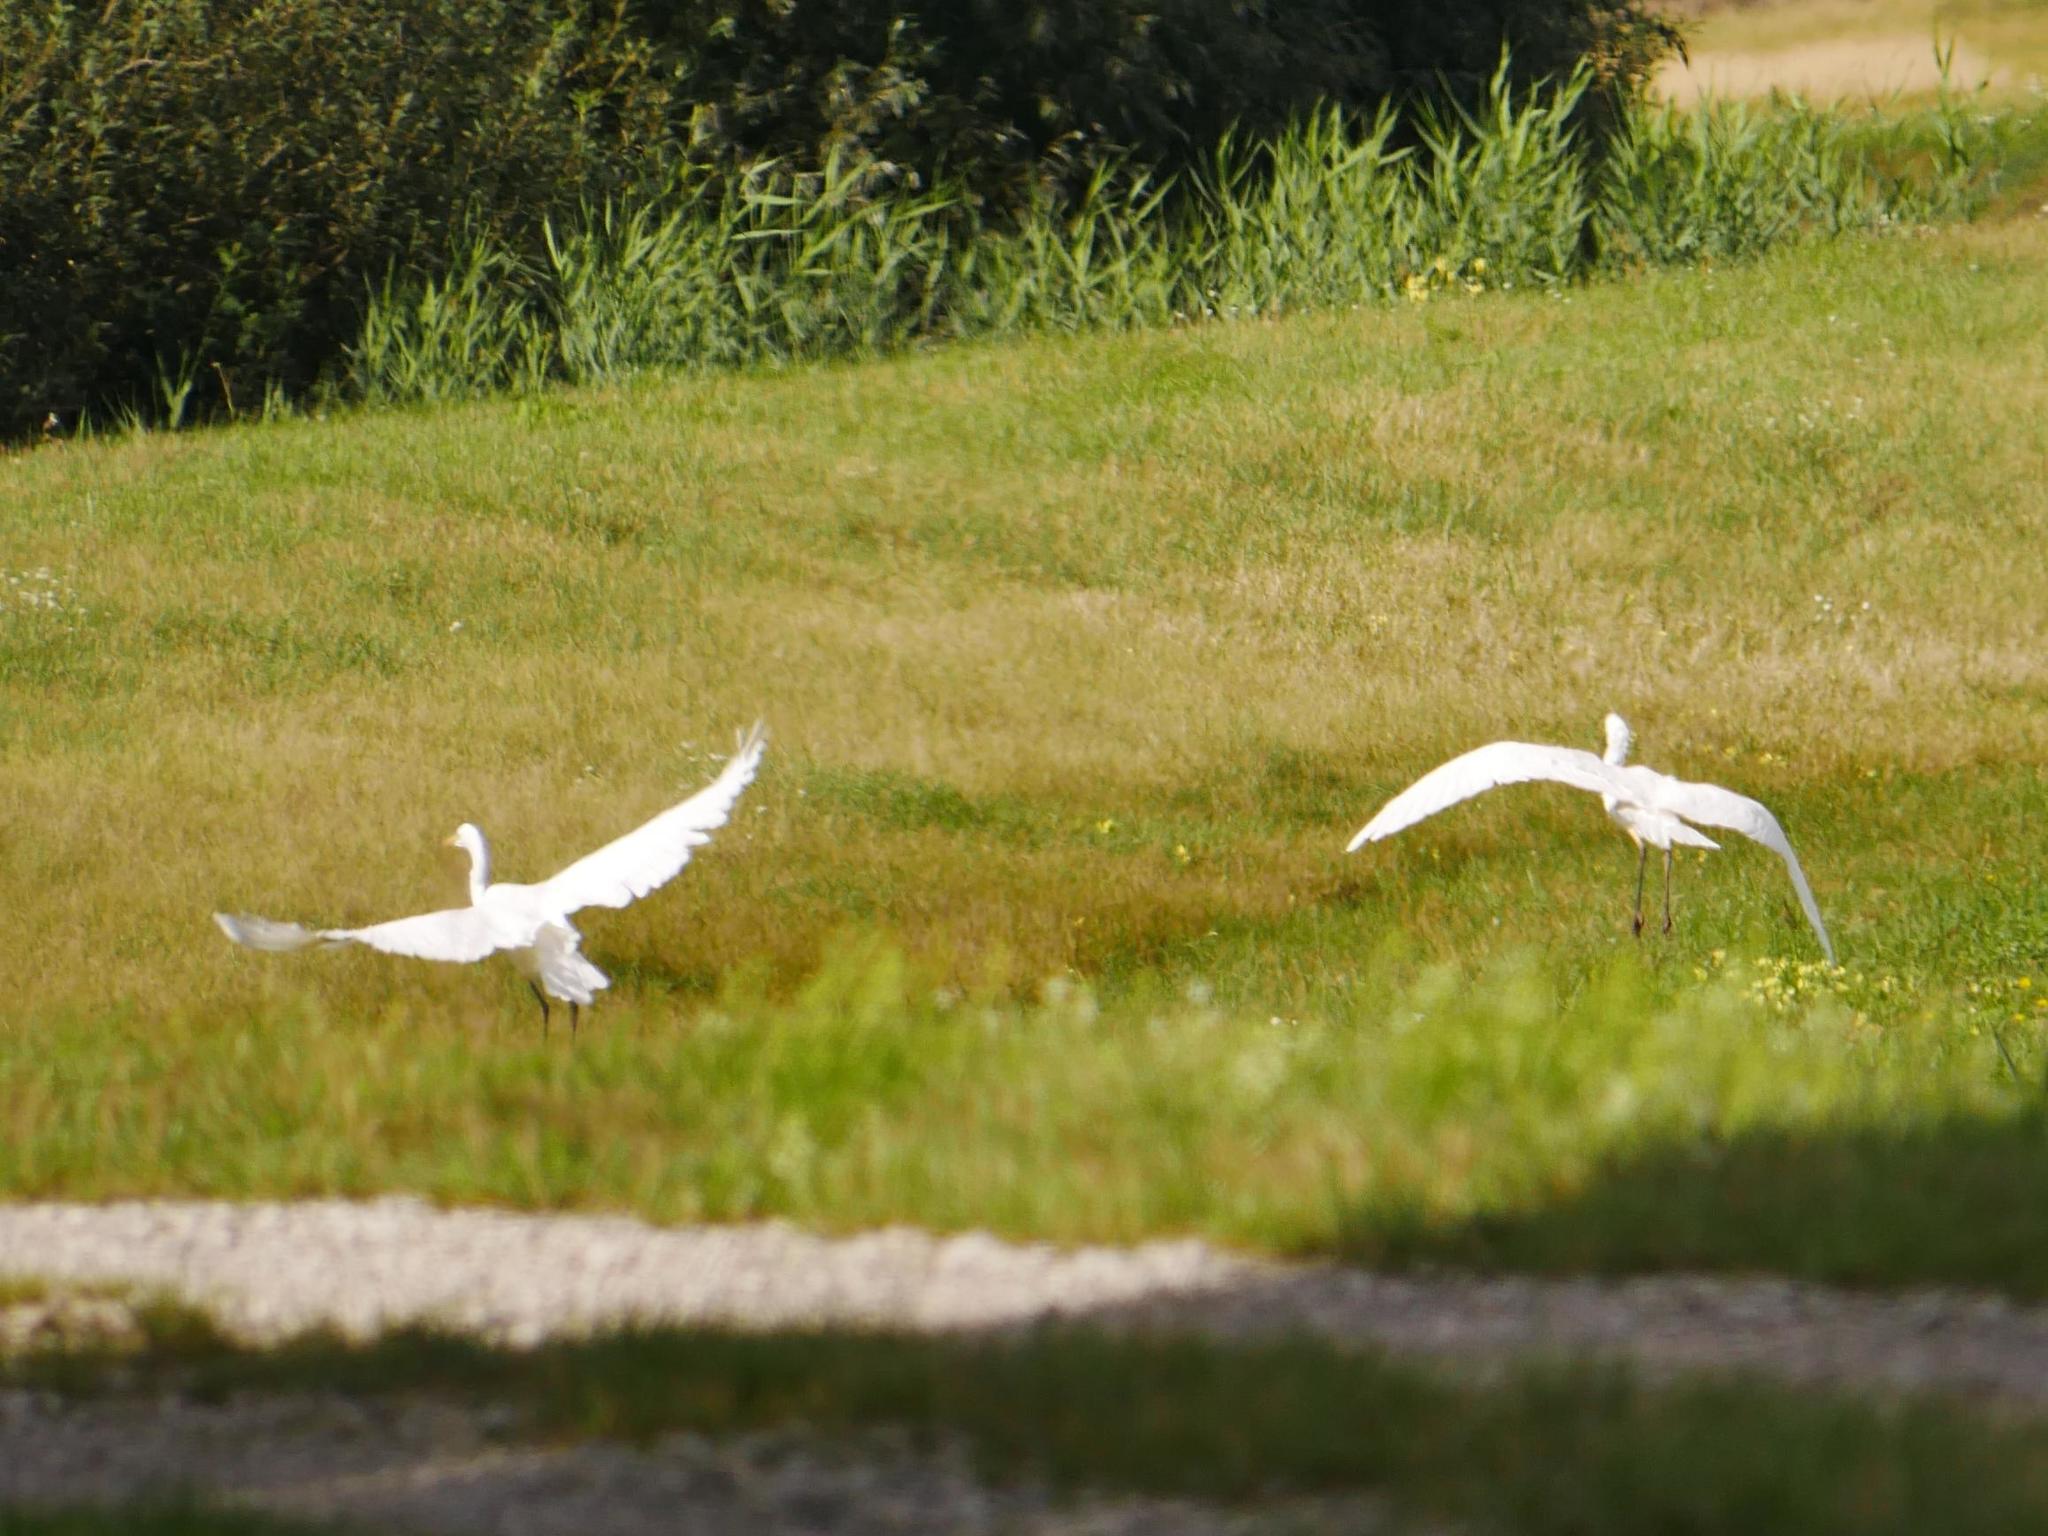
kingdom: Animalia
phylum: Chordata
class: Aves
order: Pelecaniformes
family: Ardeidae
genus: Ardea
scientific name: Ardea alba
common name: Great egret
